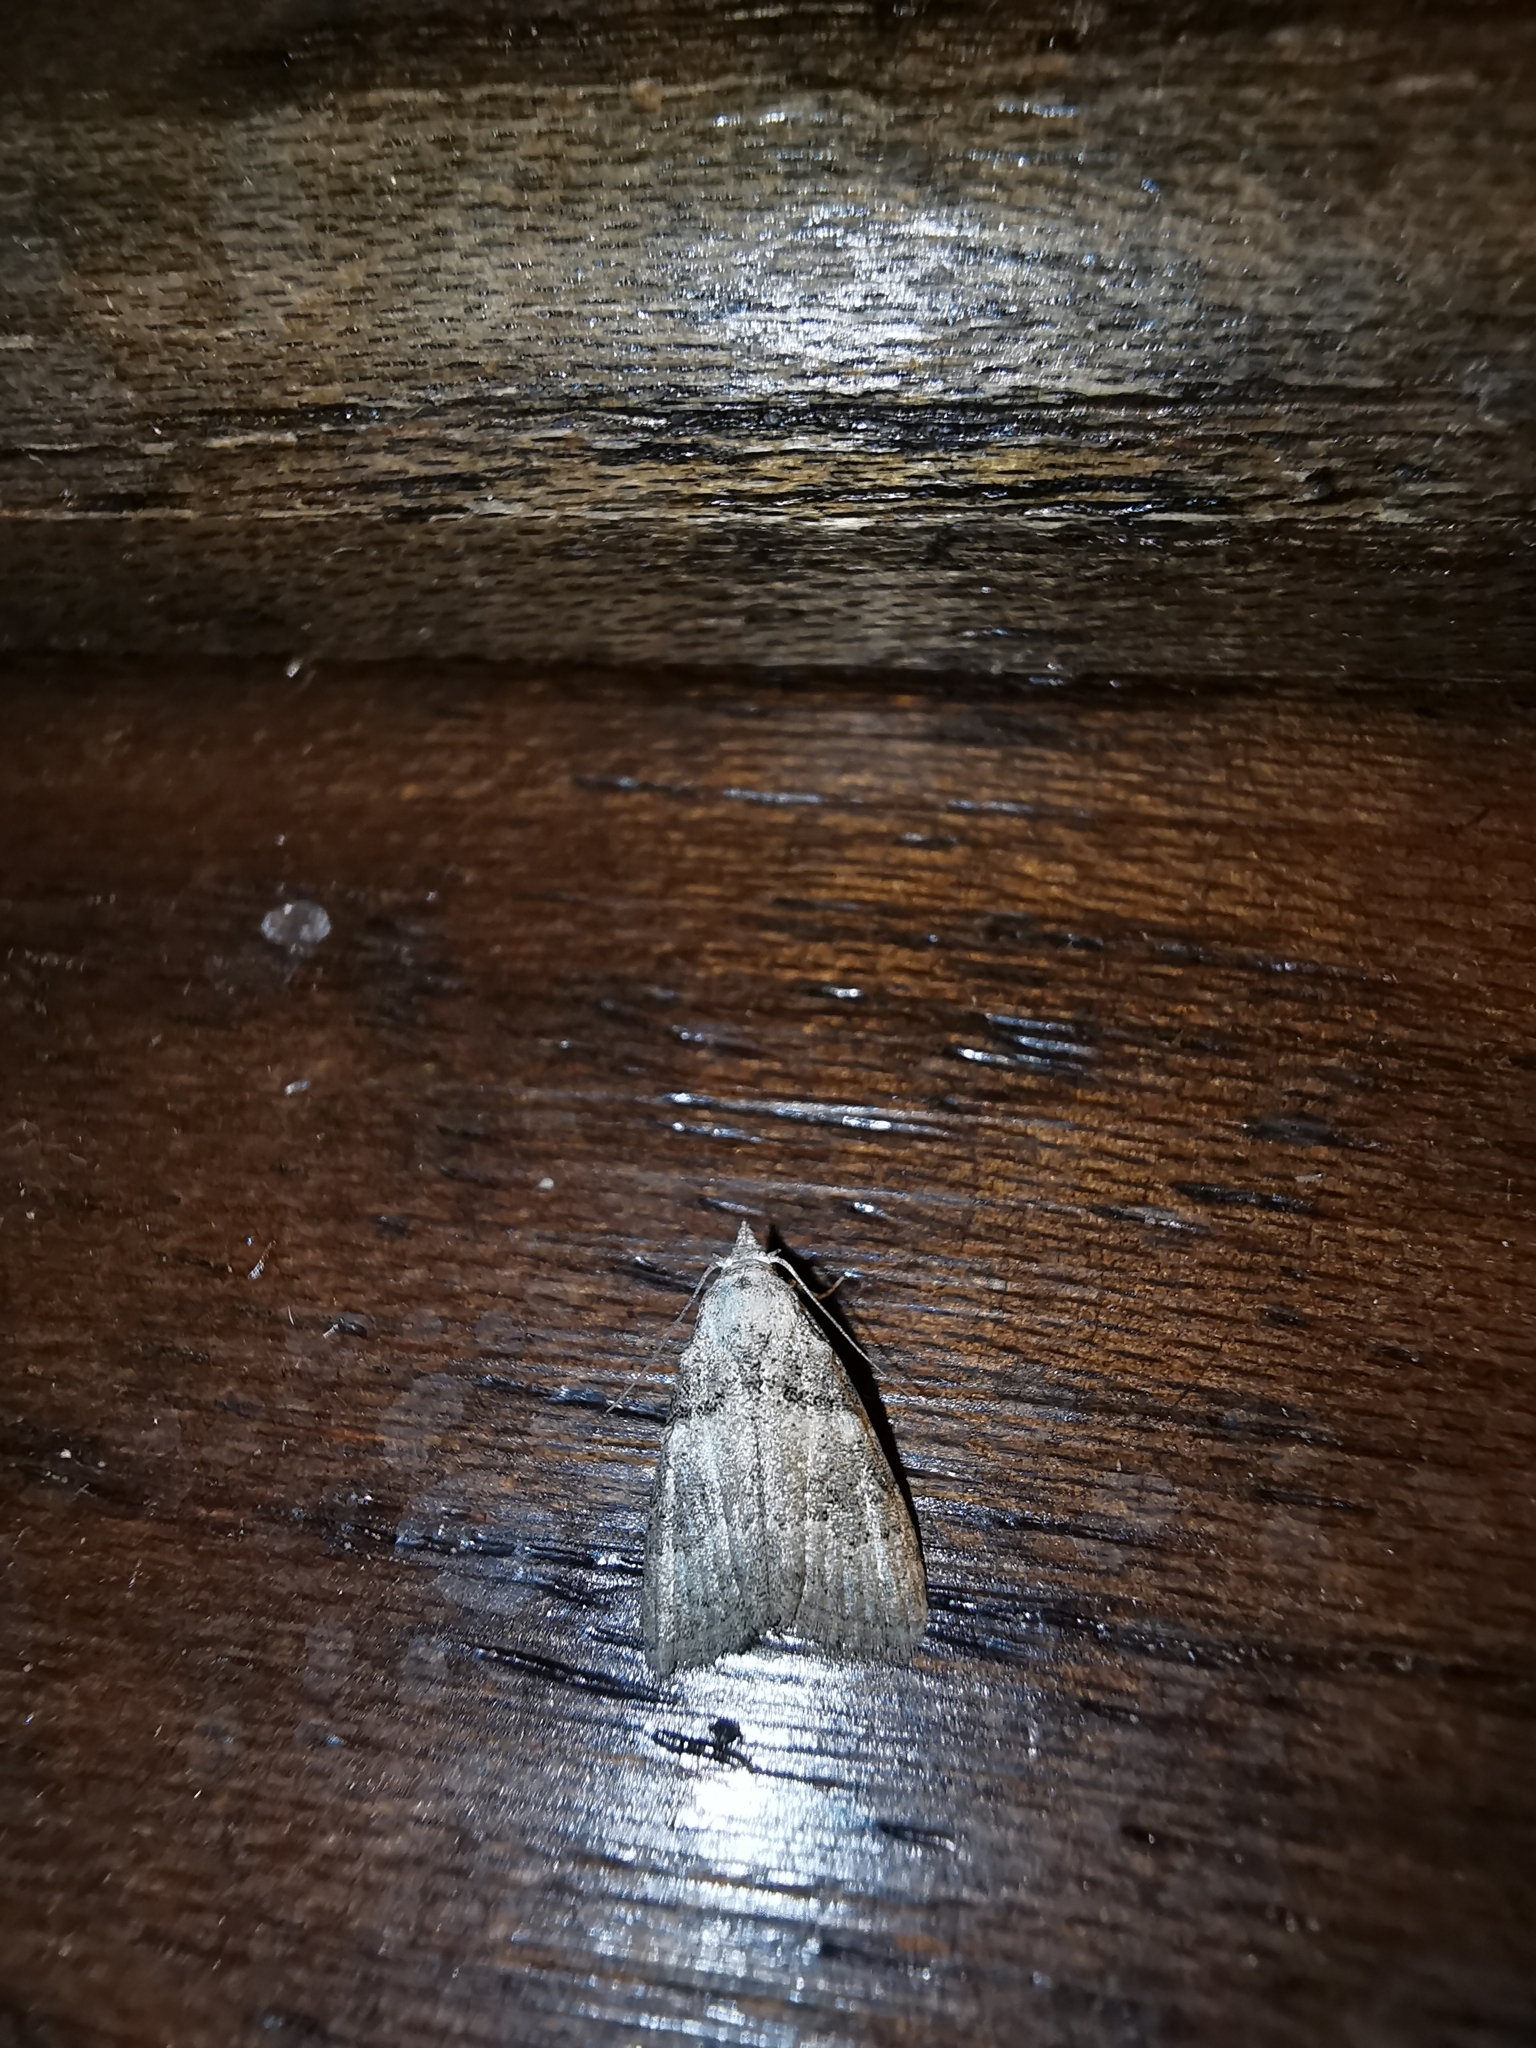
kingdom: Animalia
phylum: Arthropoda
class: Insecta
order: Lepidoptera
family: Nolidae
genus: Nola
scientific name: Nola harouni
